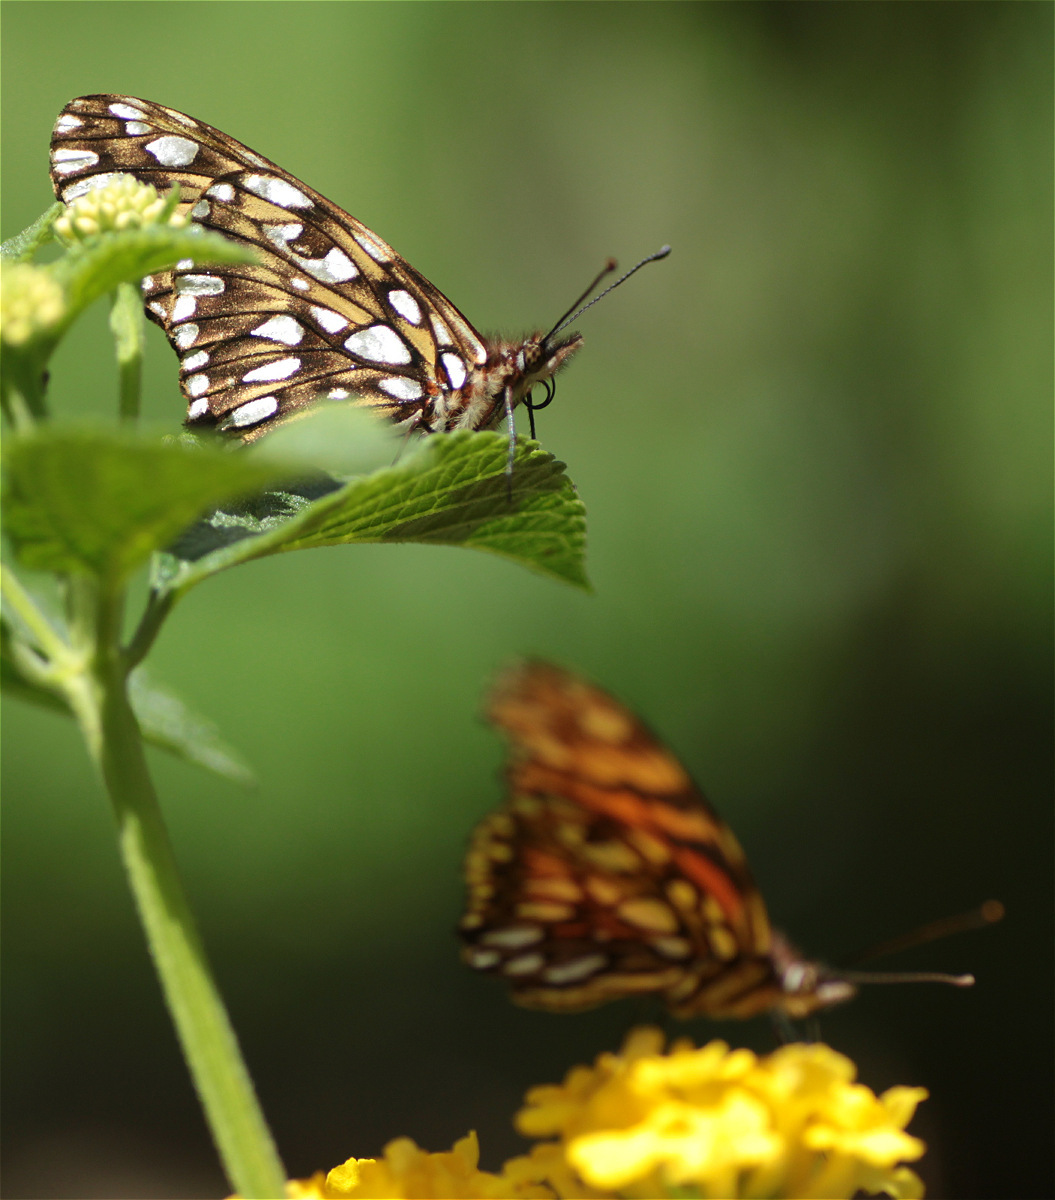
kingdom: Animalia
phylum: Arthropoda
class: Insecta
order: Lepidoptera
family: Nymphalidae
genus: Dione
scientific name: Dione juno
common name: Juno silverspot
